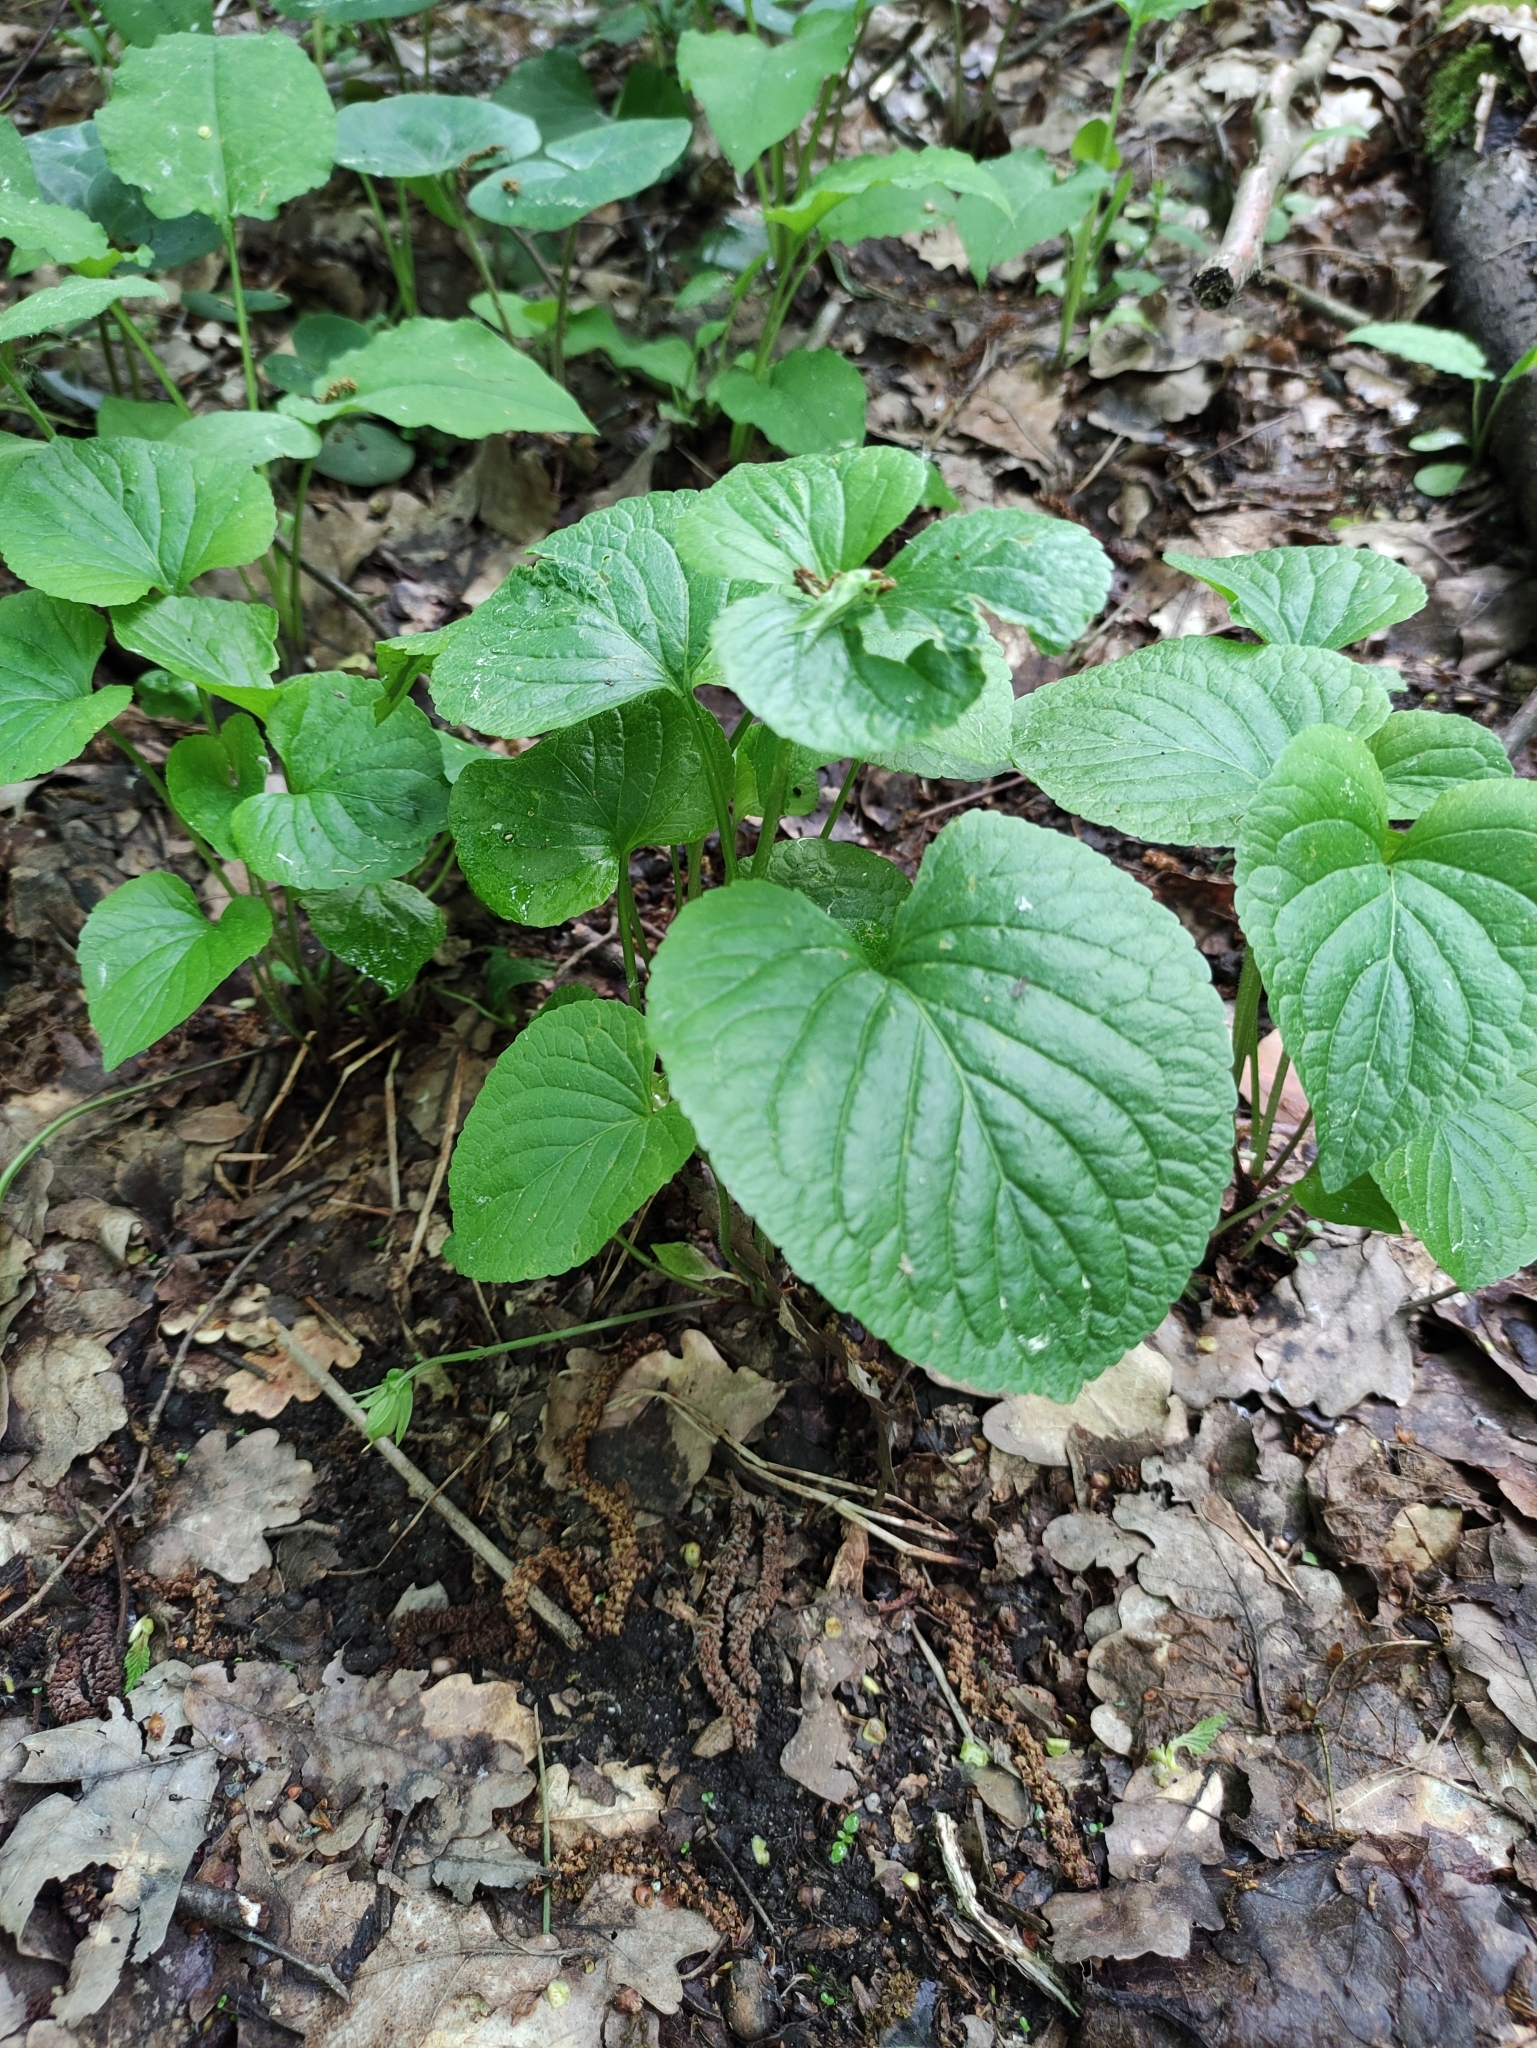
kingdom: Plantae
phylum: Tracheophyta
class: Magnoliopsida
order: Malpighiales
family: Violaceae
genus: Viola
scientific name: Viola mirabilis
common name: Wonder violet
